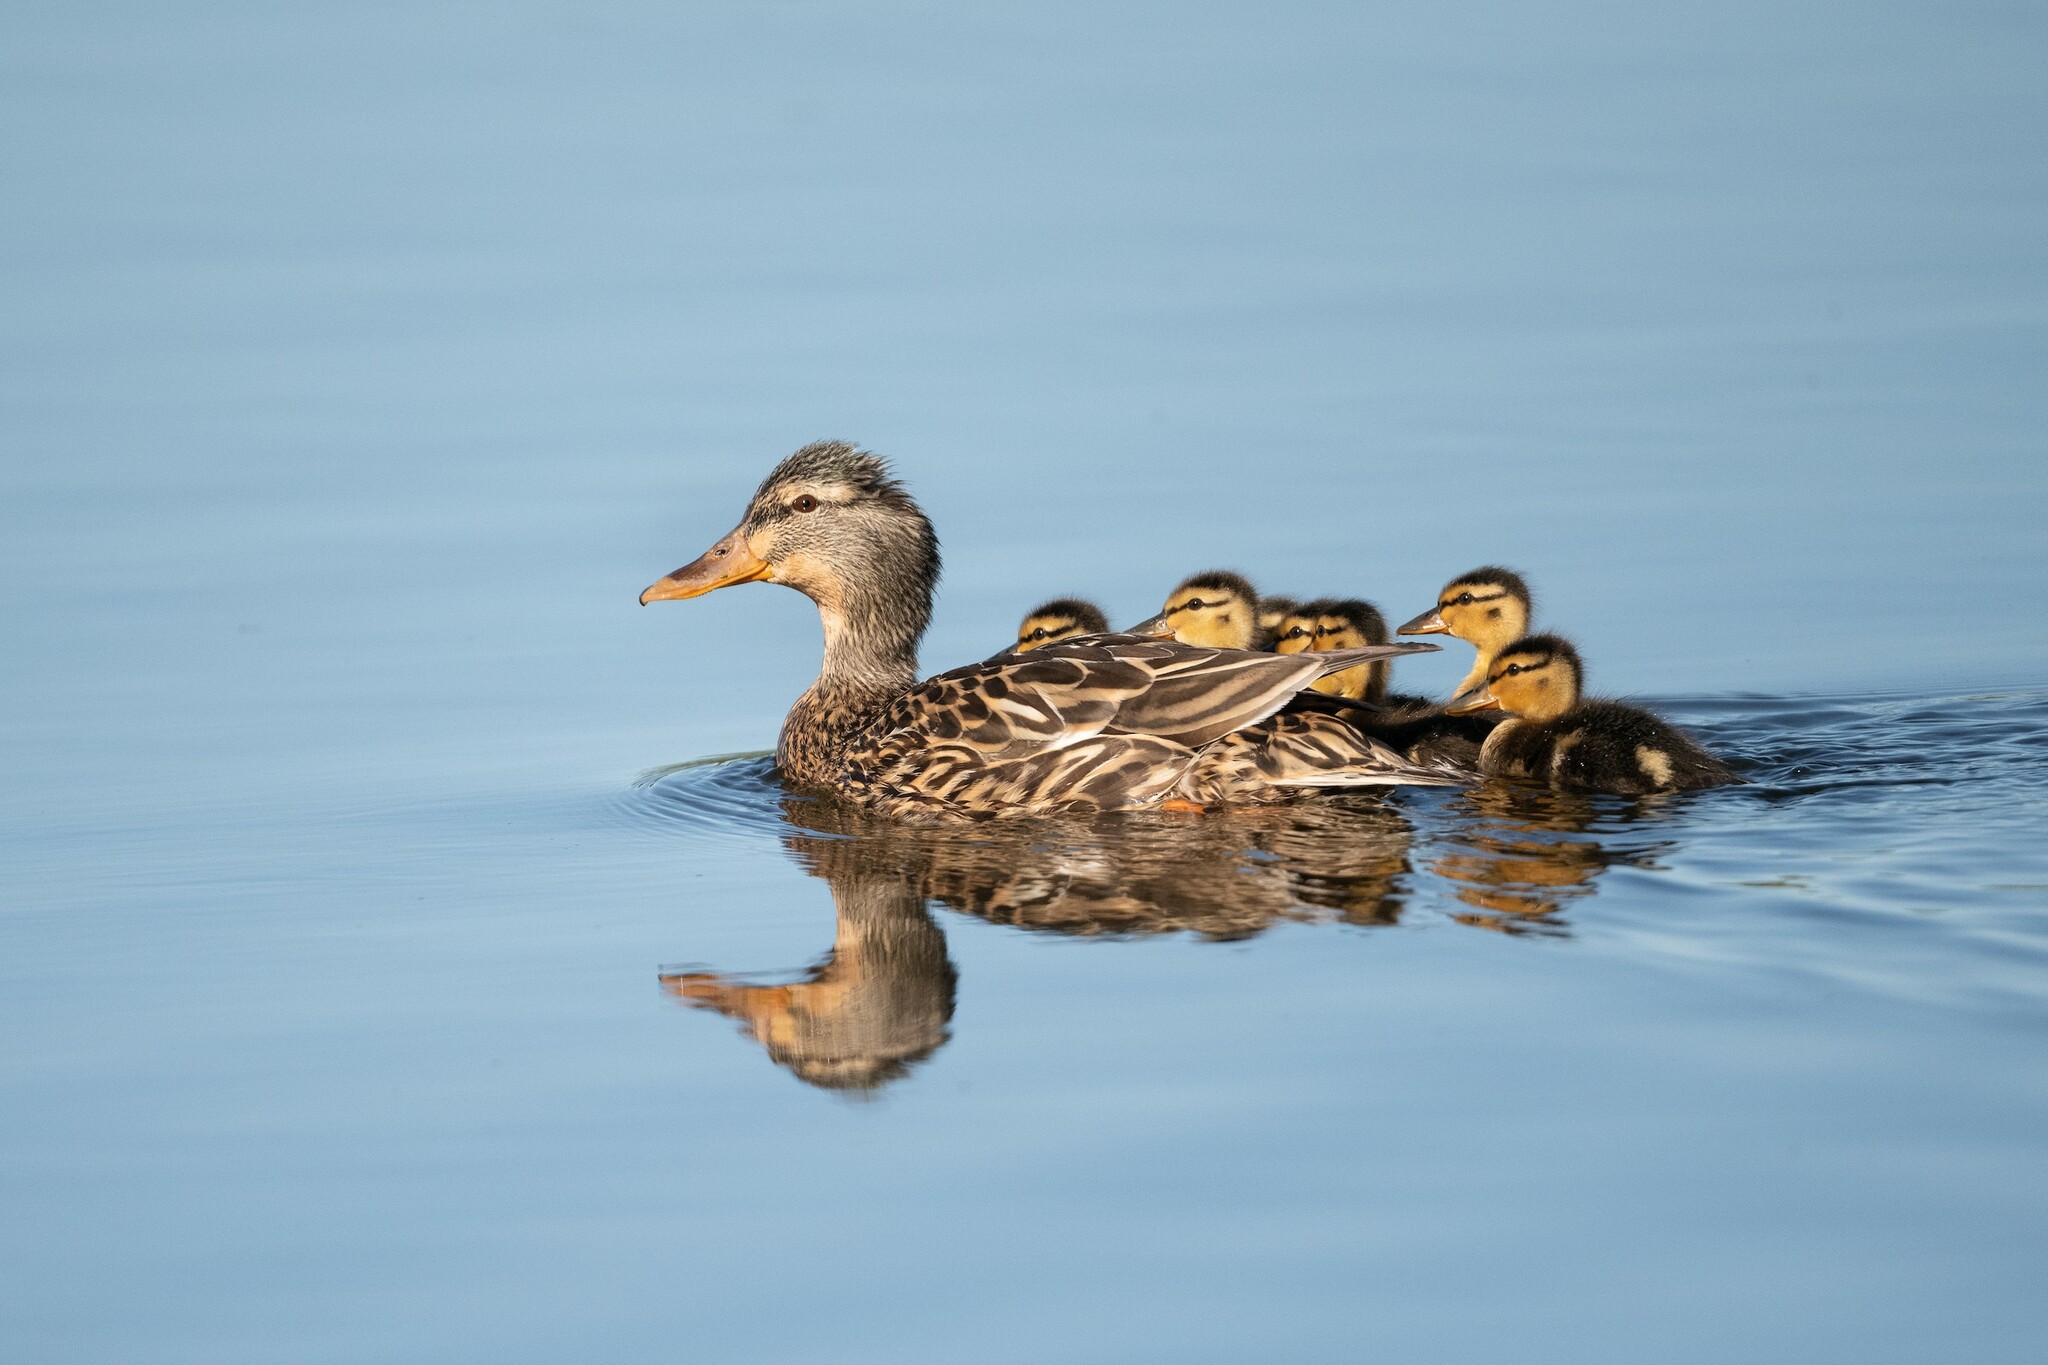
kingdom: Animalia
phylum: Chordata
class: Aves
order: Anseriformes
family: Anatidae
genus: Anas
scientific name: Anas platyrhynchos
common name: Mallard
